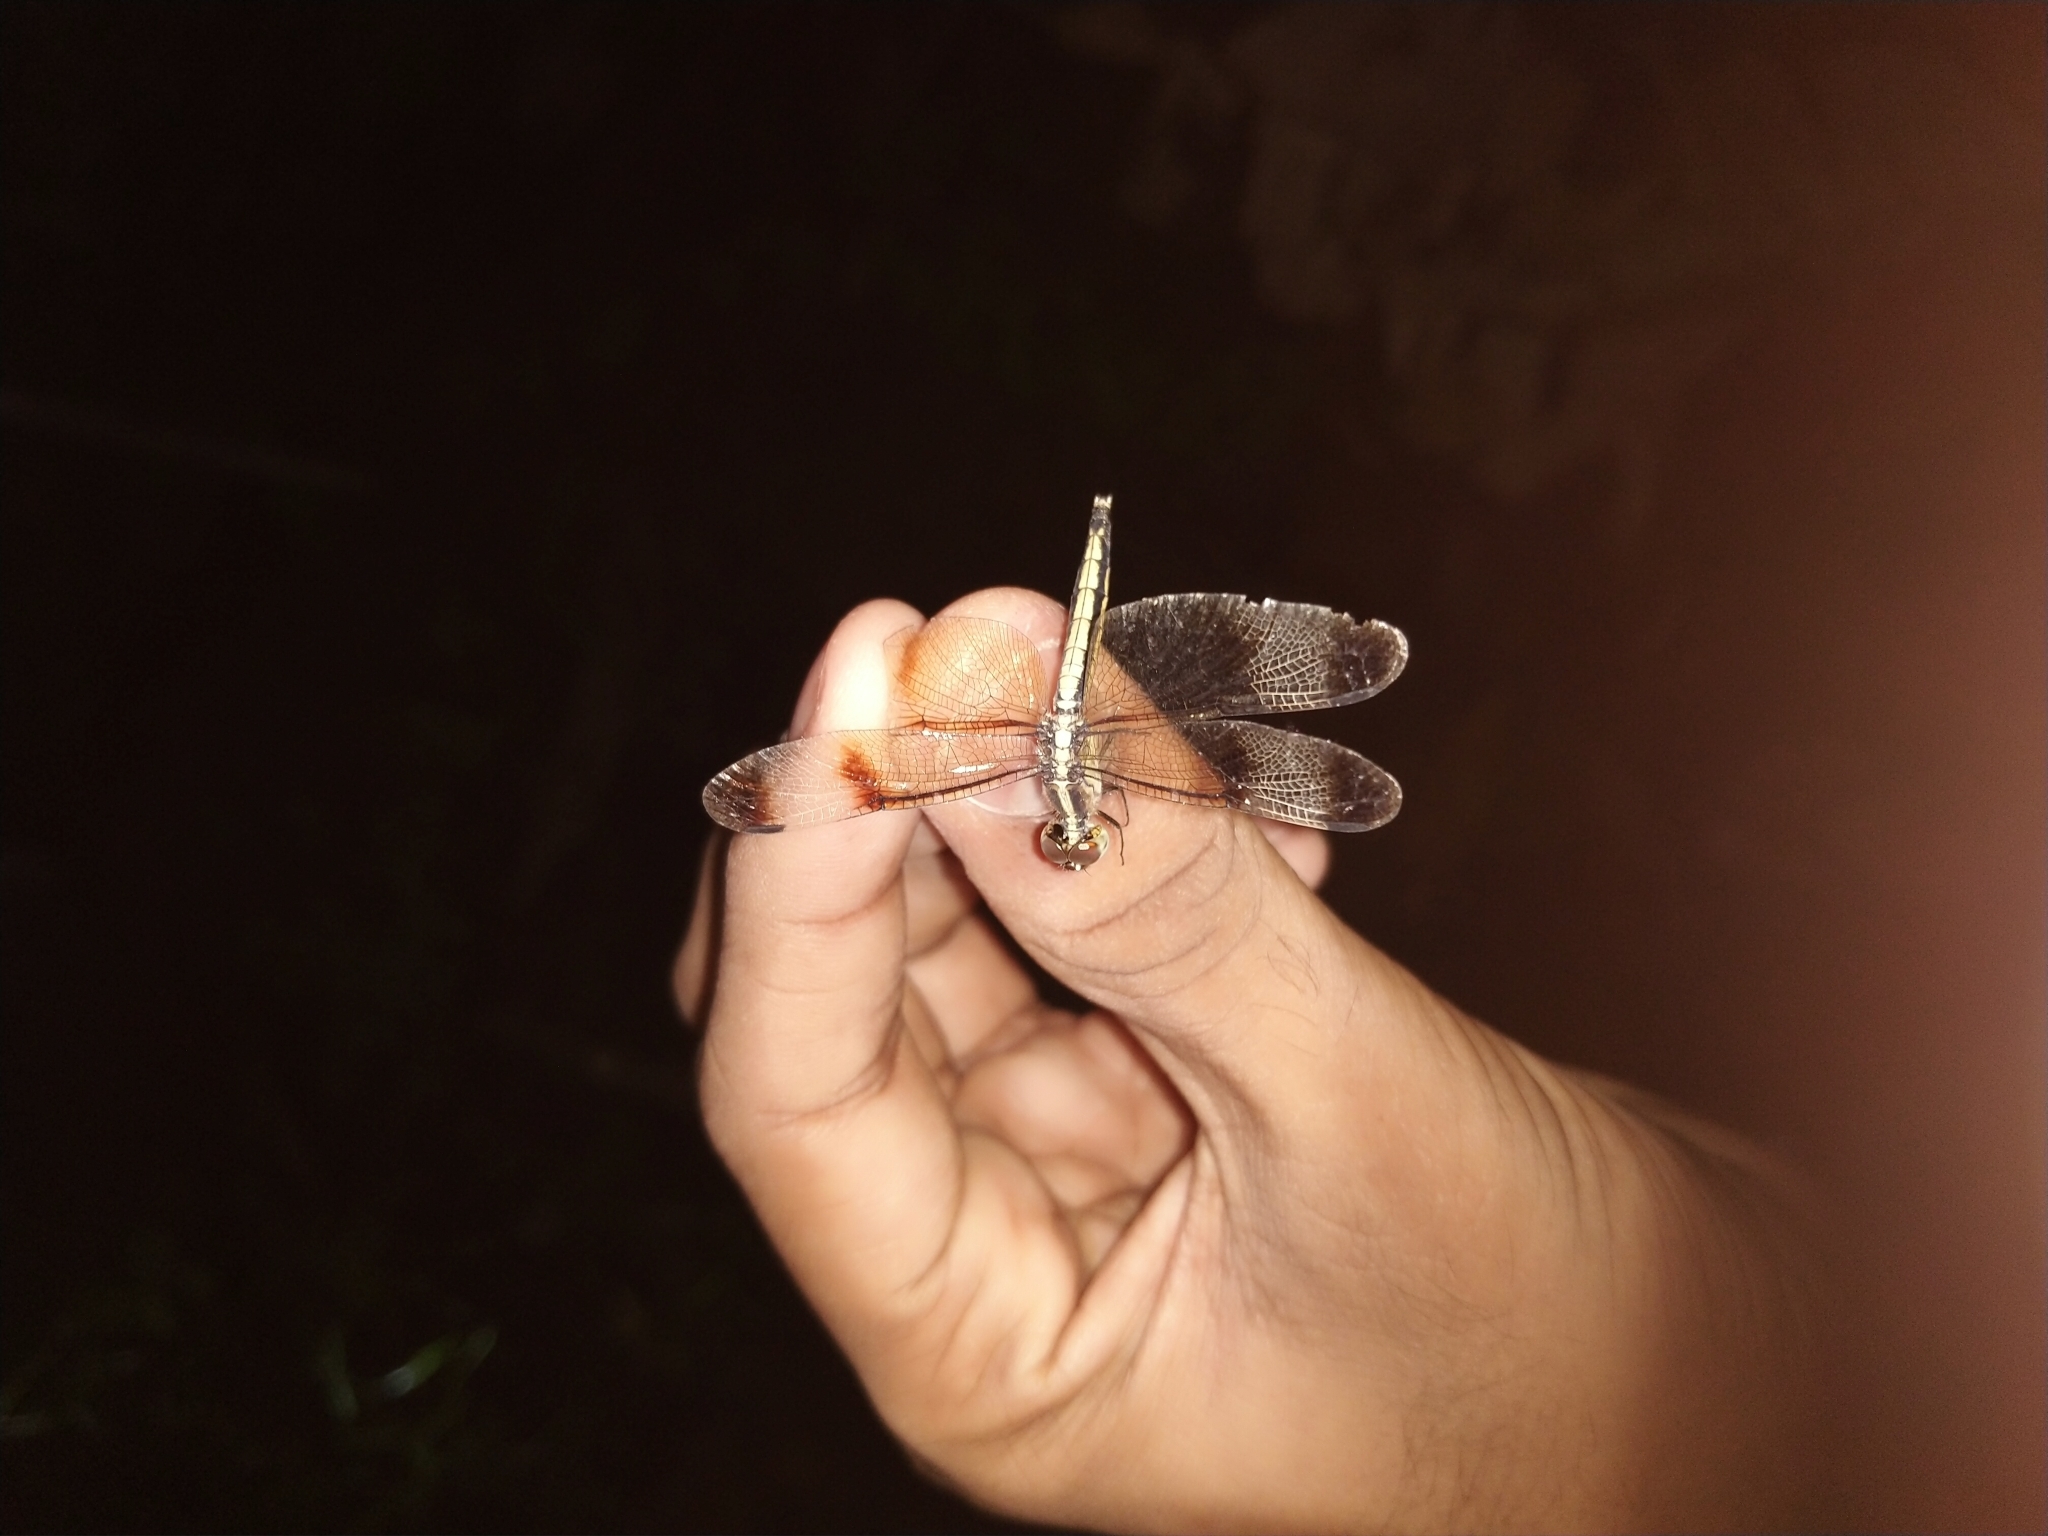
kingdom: Animalia
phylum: Arthropoda
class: Insecta
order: Odonata
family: Libellulidae
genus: Neurothemis
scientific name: Neurothemis tullia
